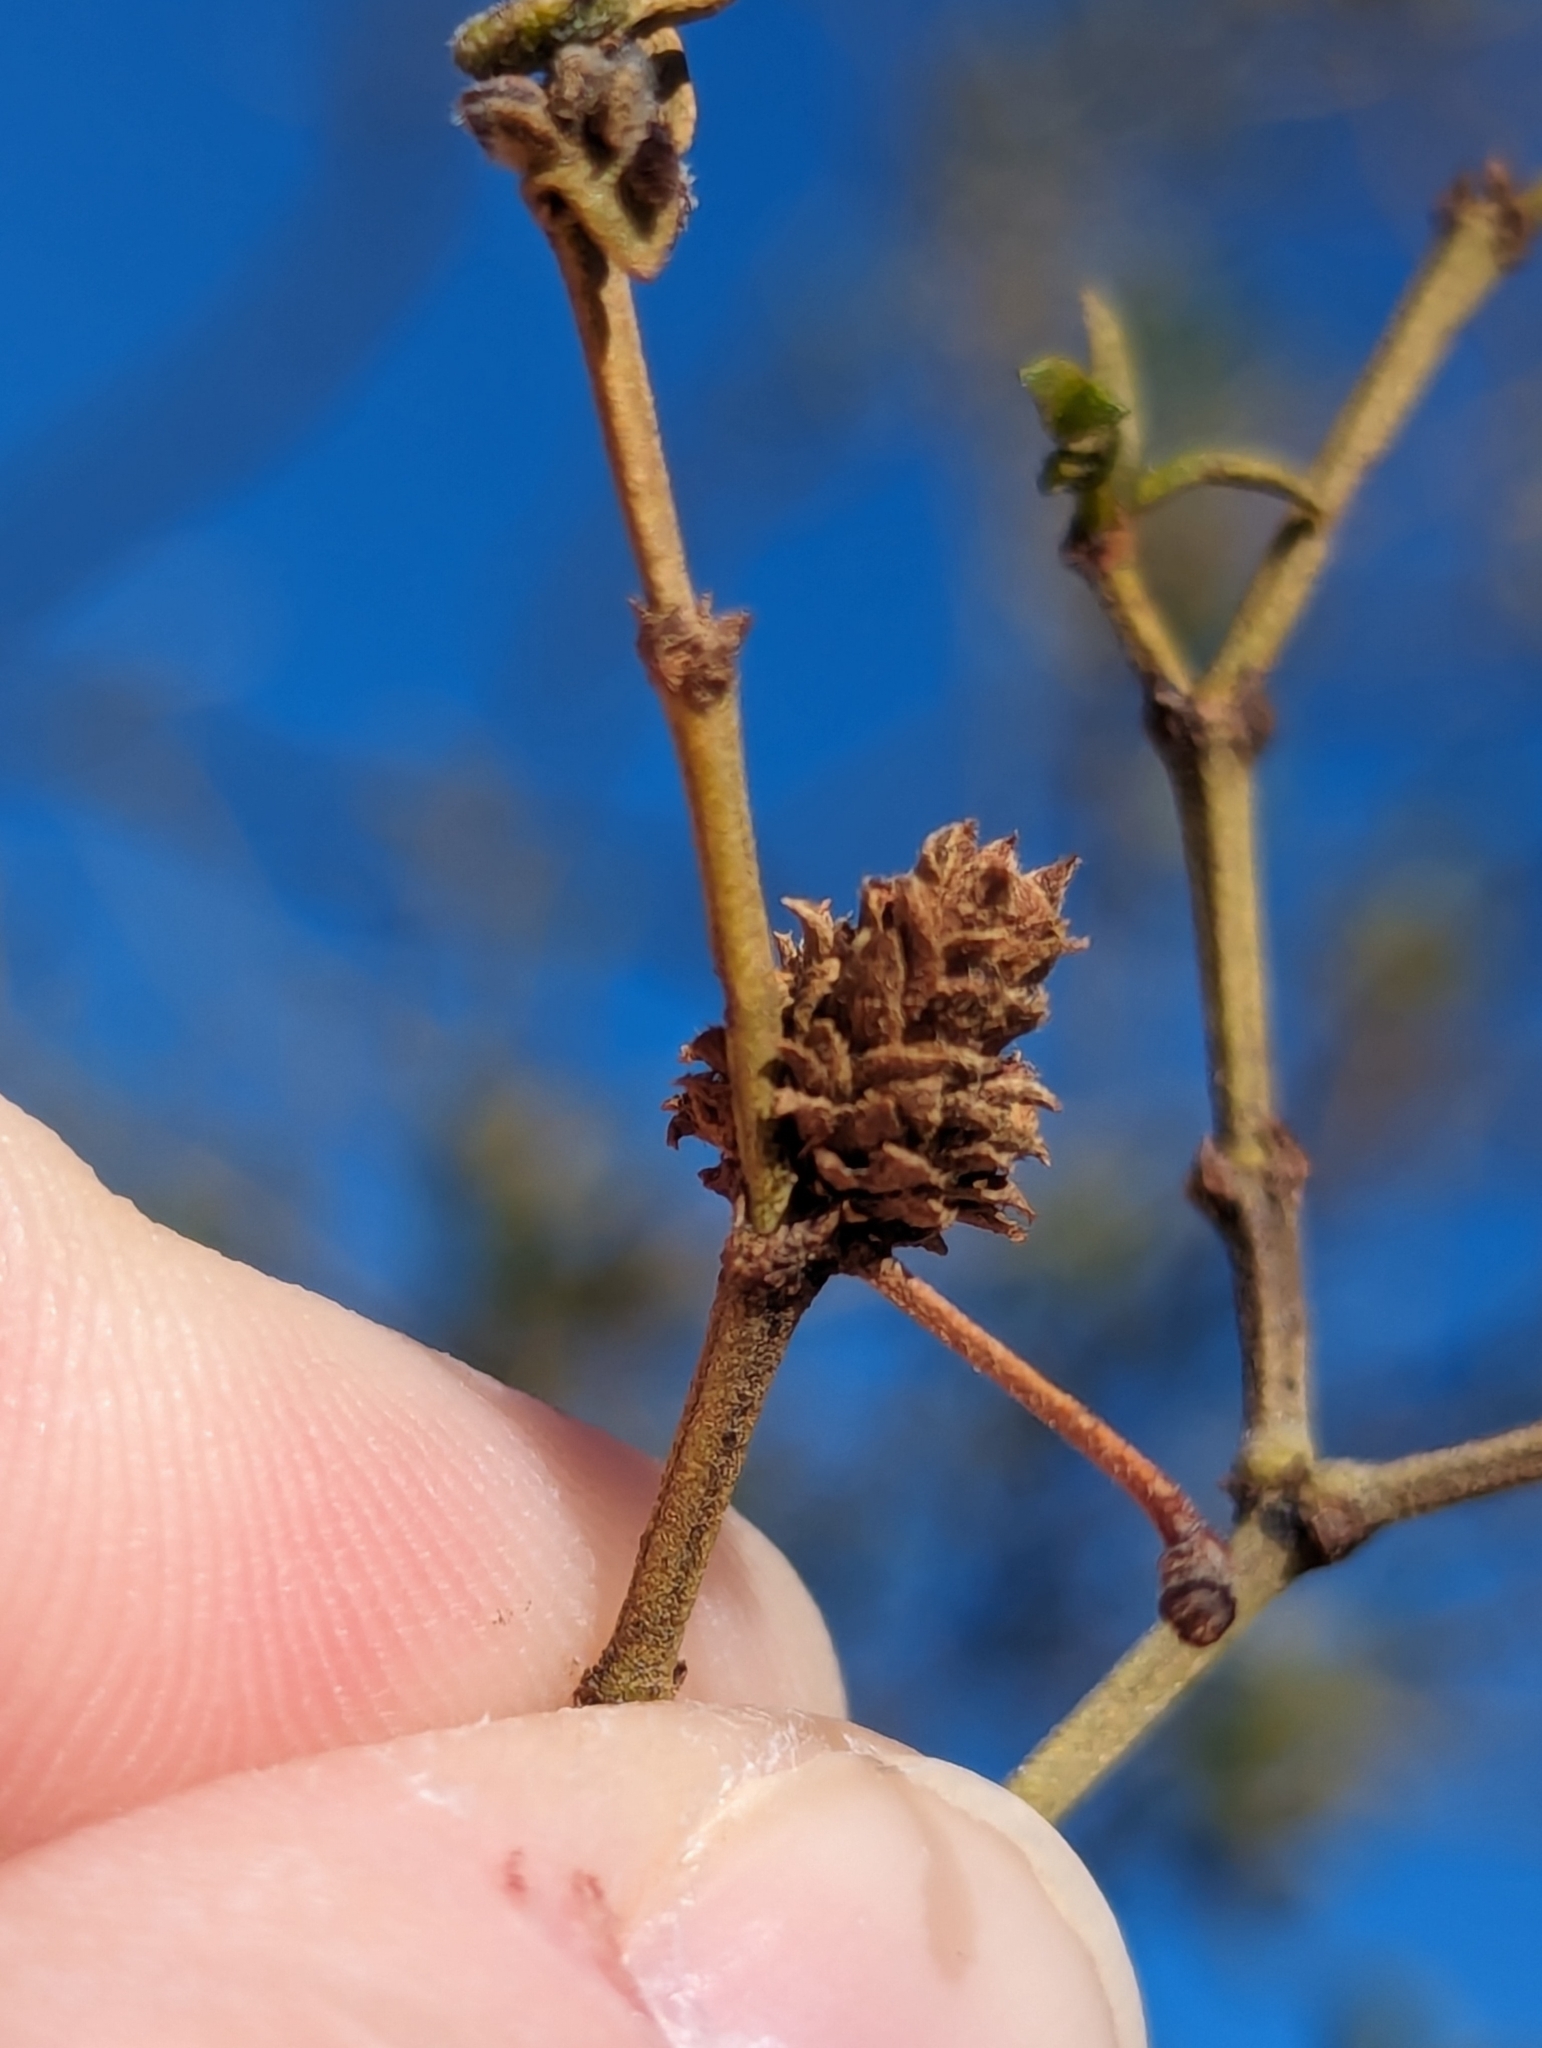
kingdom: Animalia
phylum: Arthropoda
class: Insecta
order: Diptera
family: Cecidomyiidae
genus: Asphondylia
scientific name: Asphondylia rosetta
